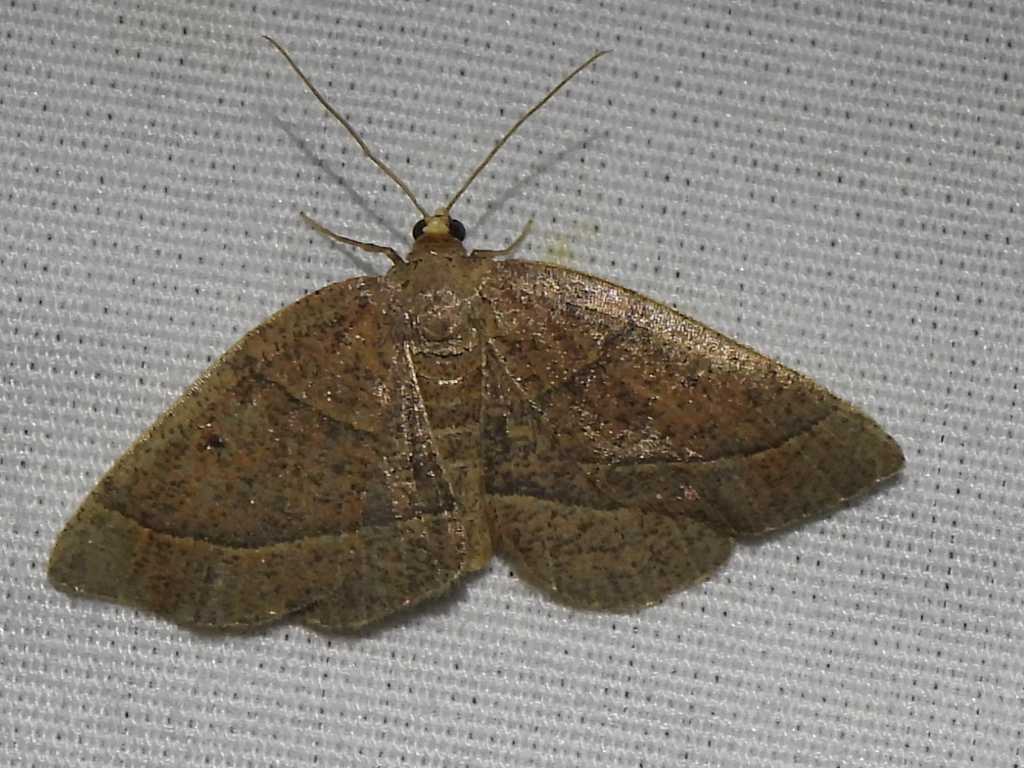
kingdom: Animalia
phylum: Arthropoda
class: Insecta
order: Lepidoptera
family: Geometridae
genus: Episemasia
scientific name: Episemasia cervinaria
